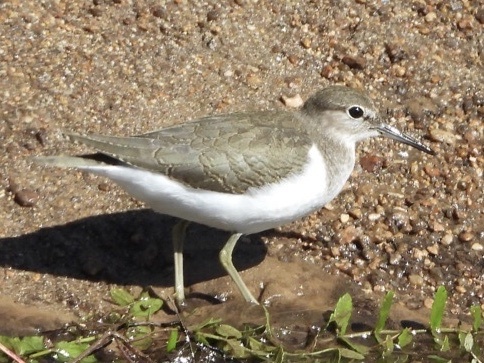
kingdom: Animalia
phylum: Chordata
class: Aves
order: Charadriiformes
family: Scolopacidae
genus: Actitis
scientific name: Actitis hypoleucos
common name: Common sandpiper
